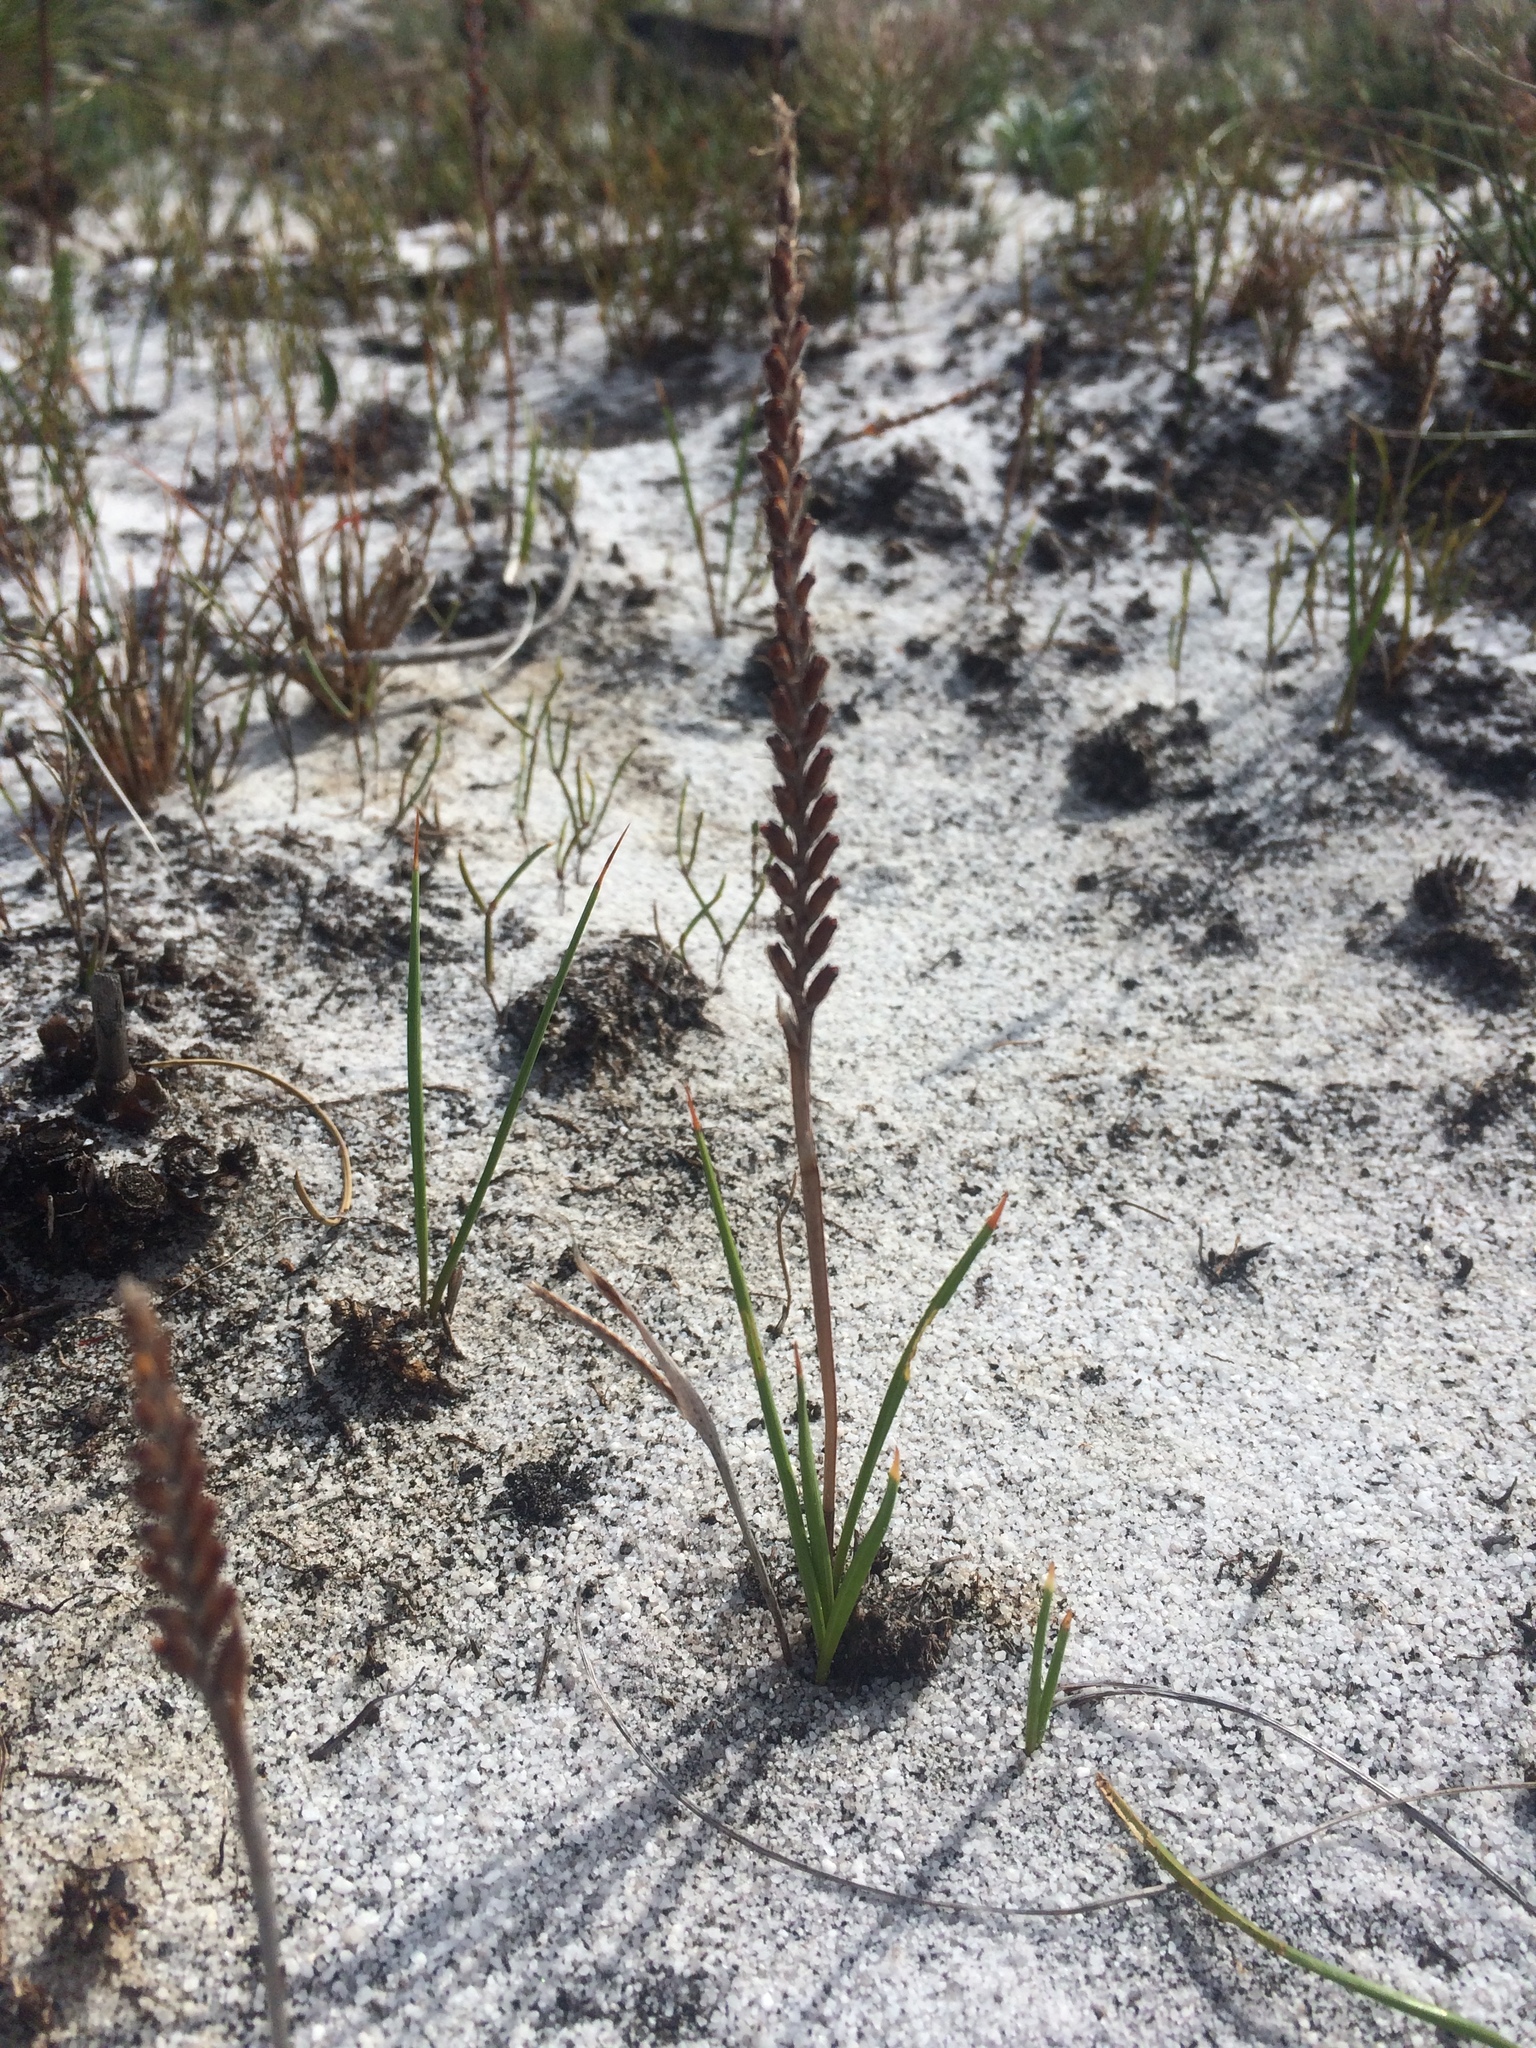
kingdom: Plantae
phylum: Tracheophyta
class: Liliopsida
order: Asparagales
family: Iridaceae
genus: Micranthus
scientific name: Micranthus tubulosus
